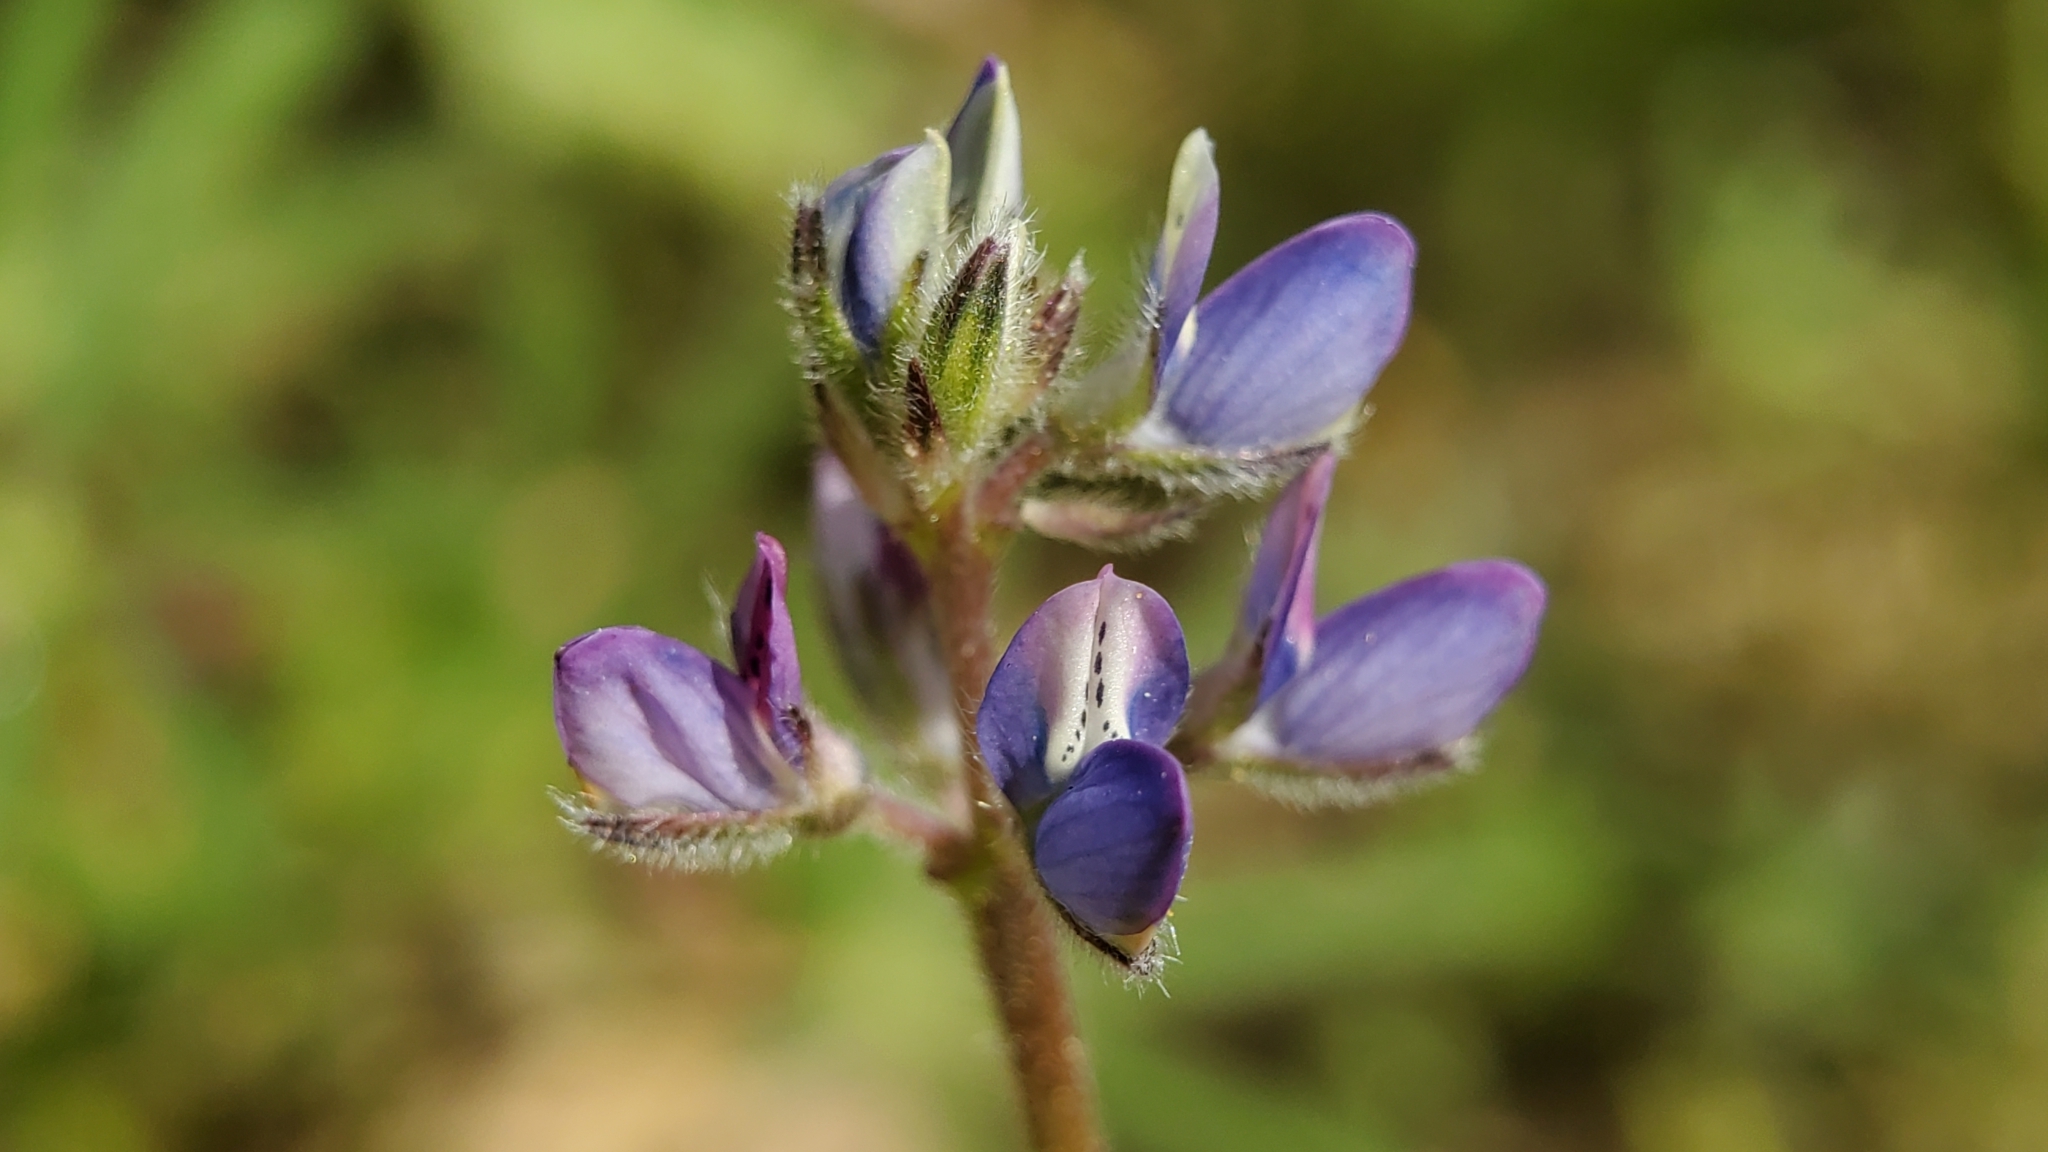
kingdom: Plantae
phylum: Tracheophyta
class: Magnoliopsida
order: Fabales
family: Fabaceae
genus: Lupinus
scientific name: Lupinus bicolor
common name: Miniature lupine
